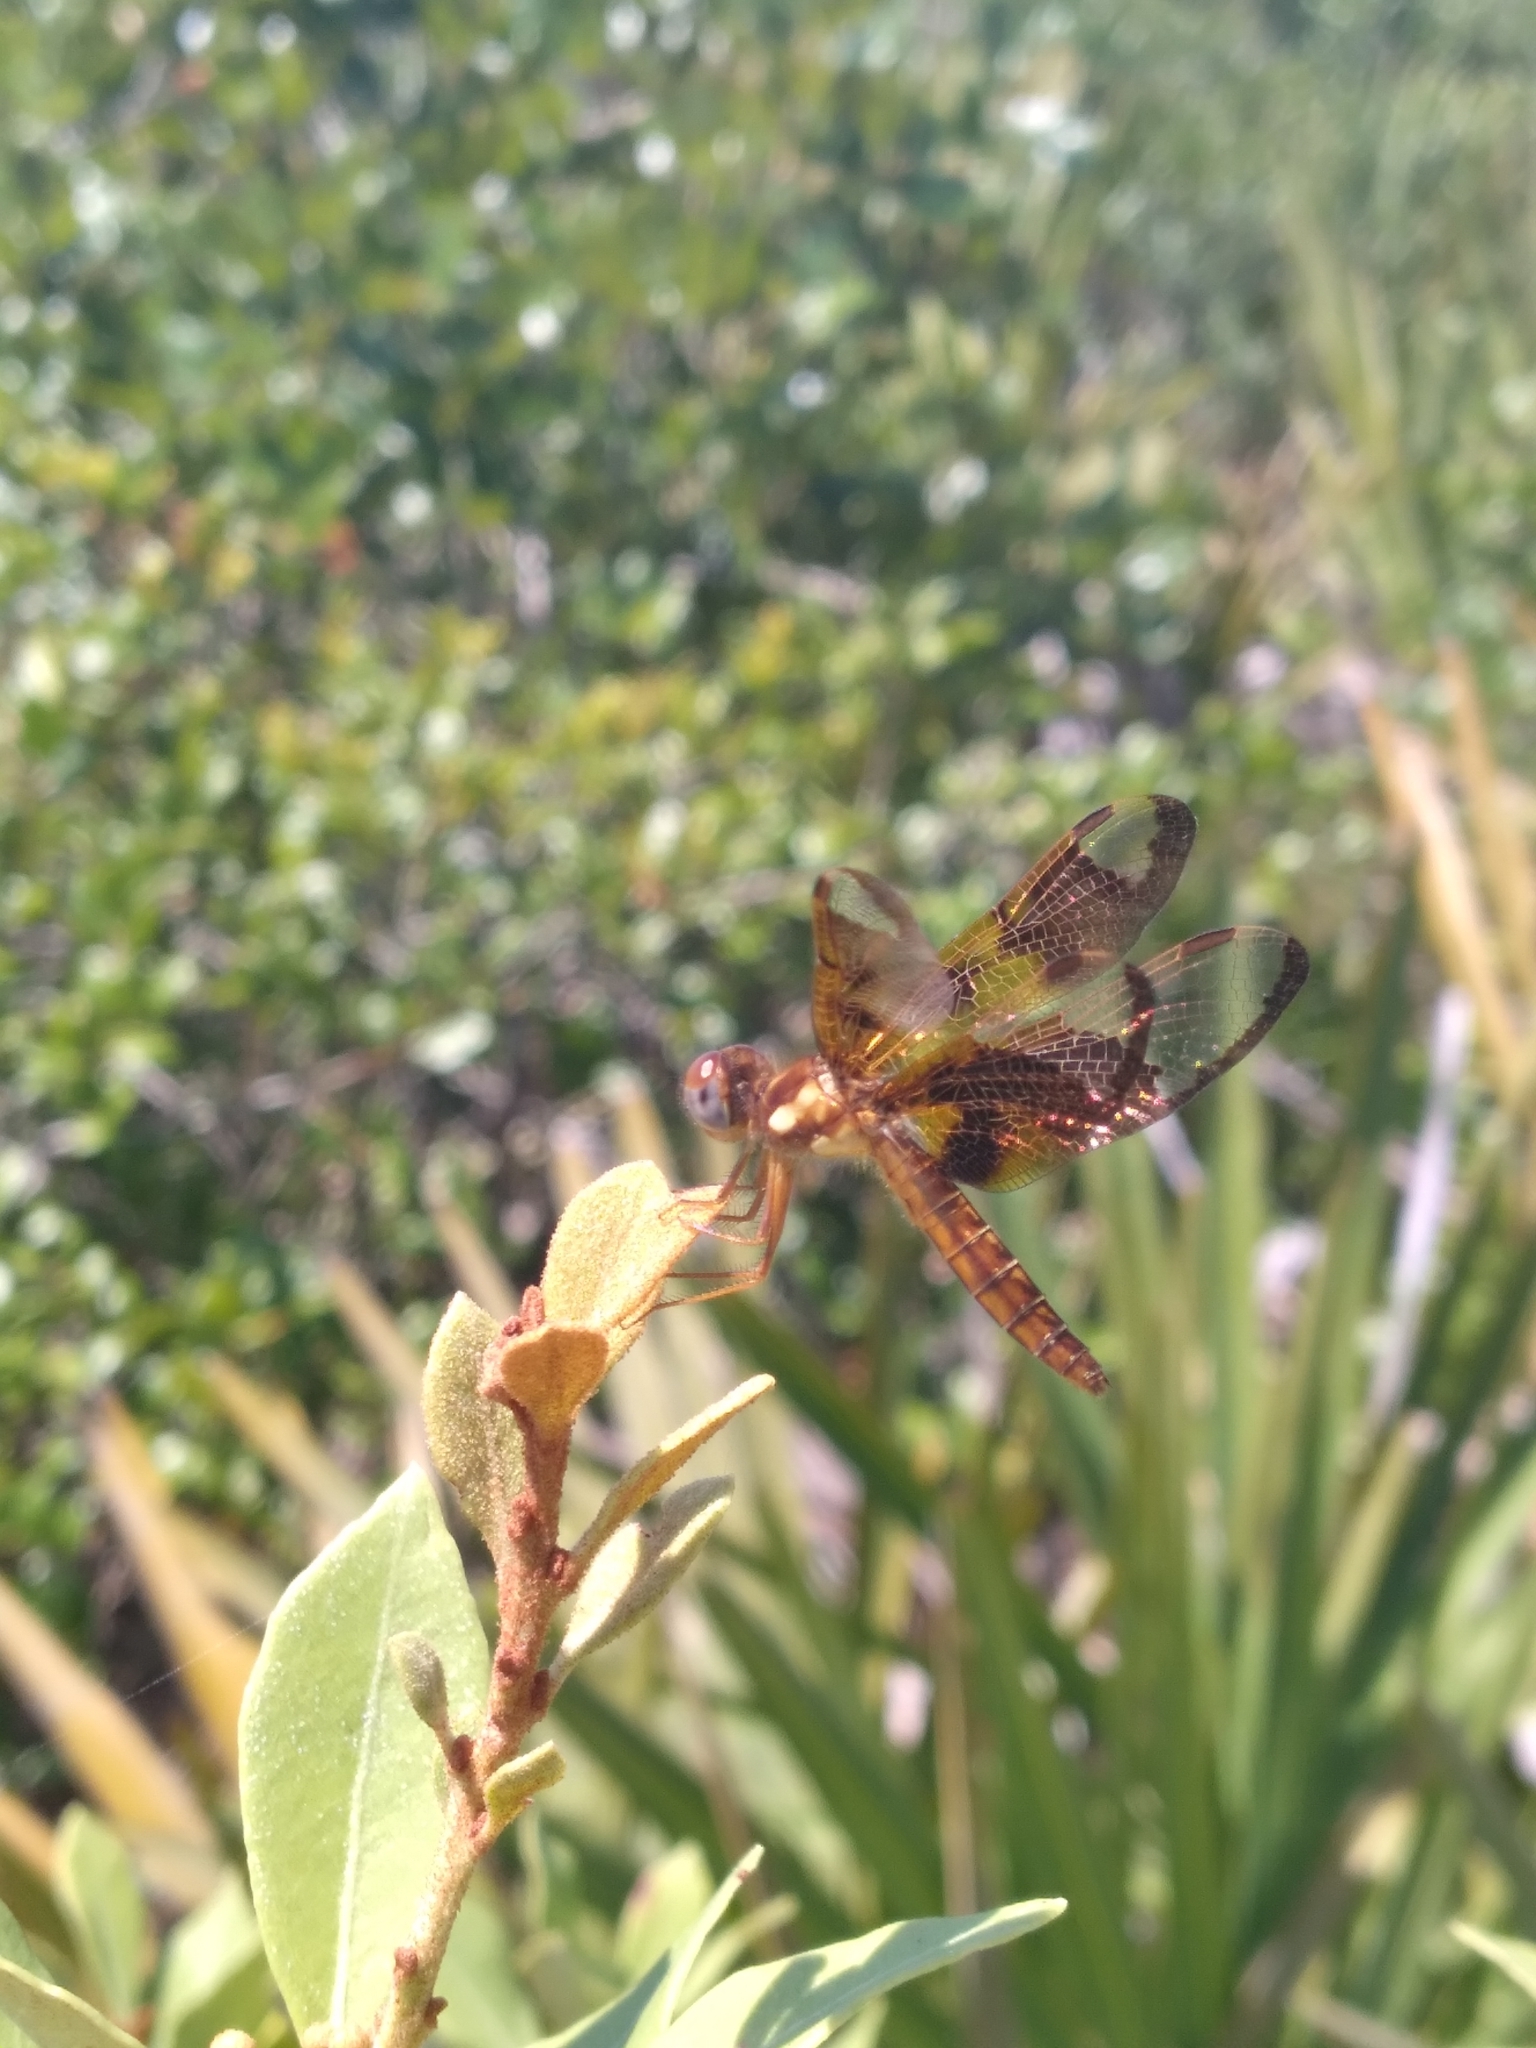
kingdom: Animalia
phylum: Arthropoda
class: Insecta
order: Odonata
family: Libellulidae
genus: Perithemis
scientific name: Perithemis tenera
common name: Eastern amberwing
